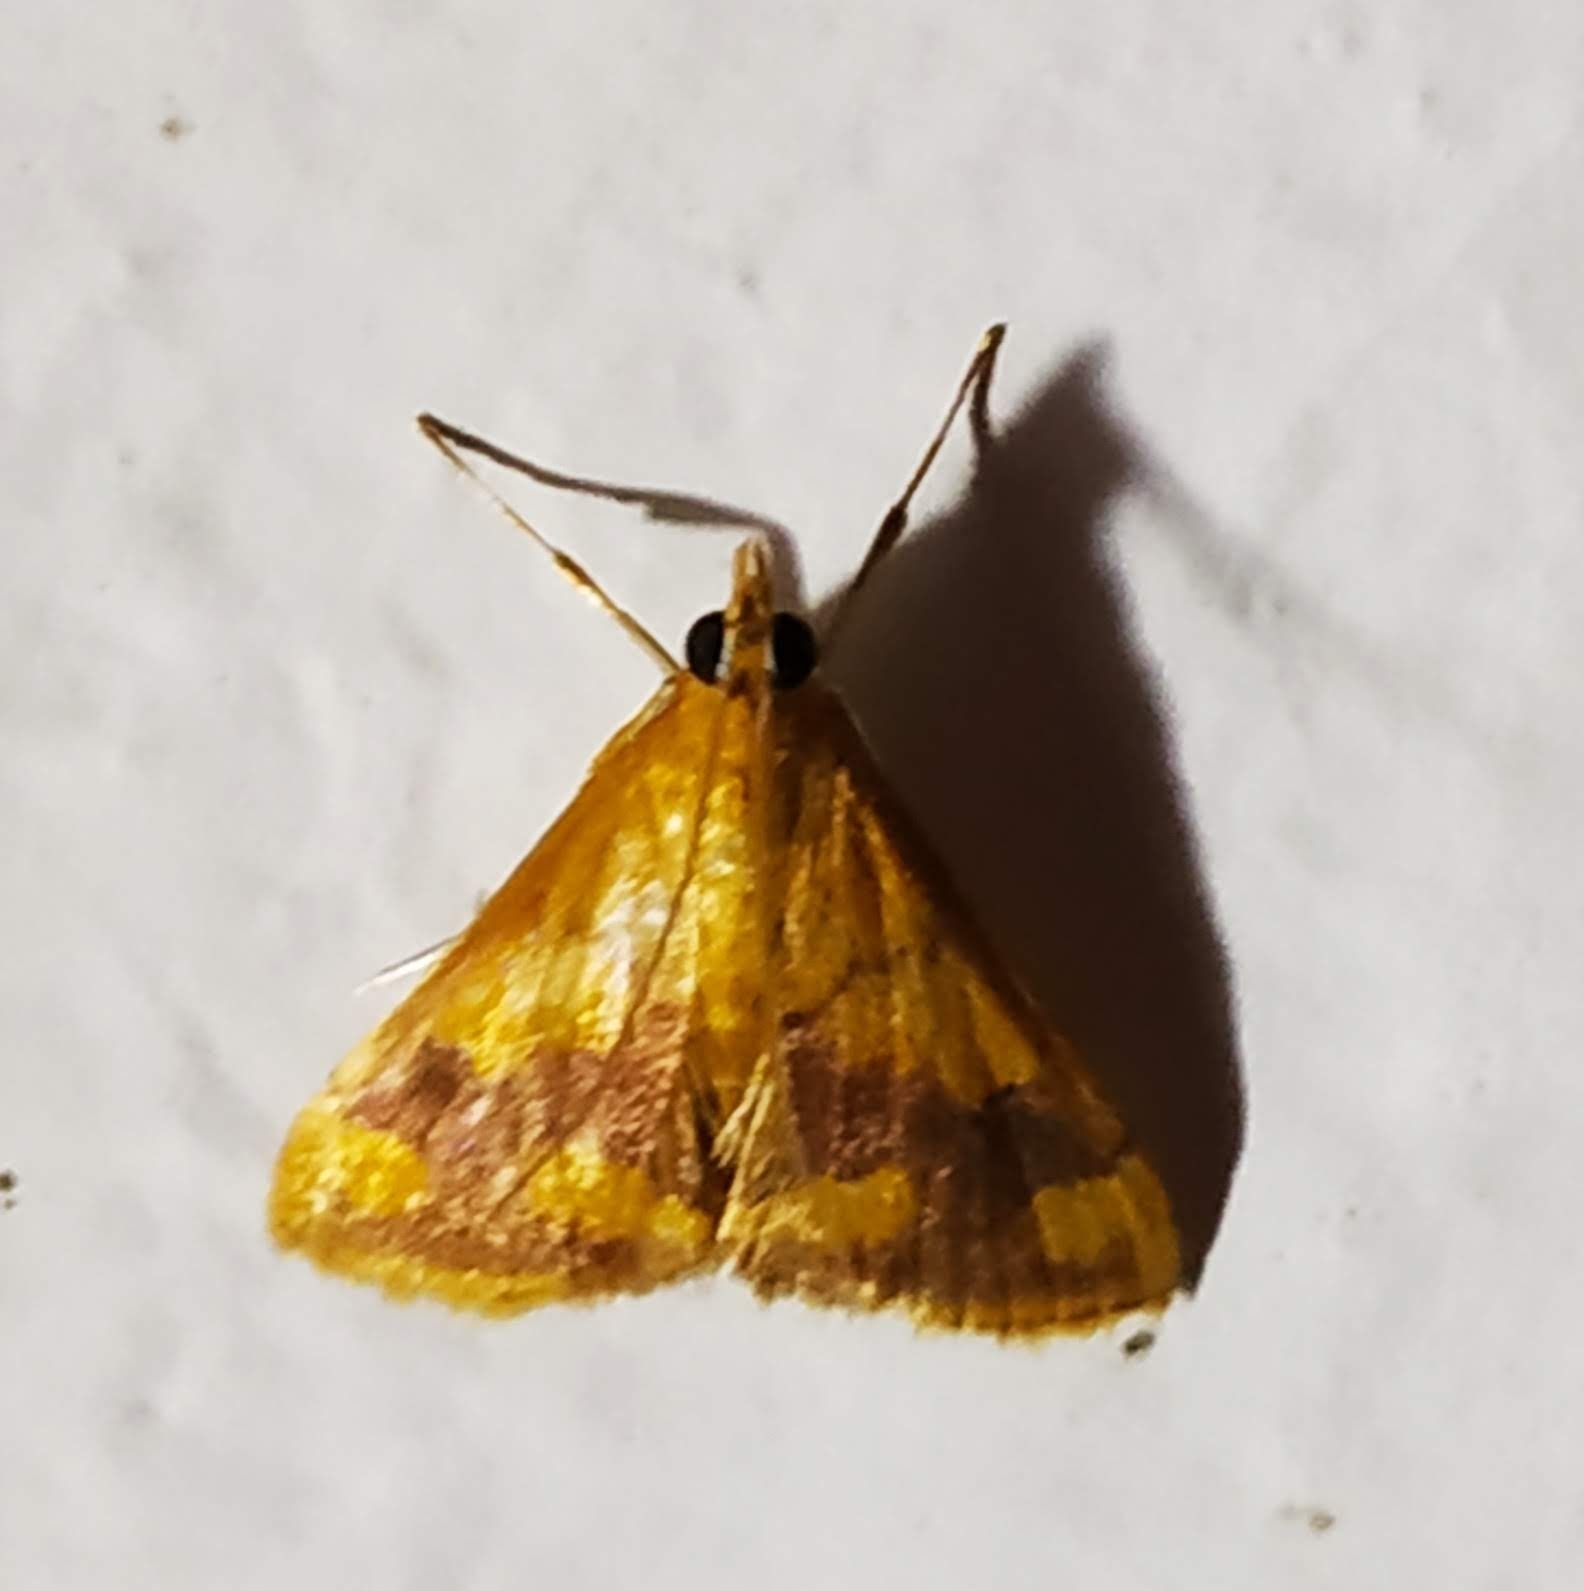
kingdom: Animalia
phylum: Arthropoda
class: Insecta
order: Lepidoptera
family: Crambidae
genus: Pyrausta
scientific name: Pyrausta phoenicealis
